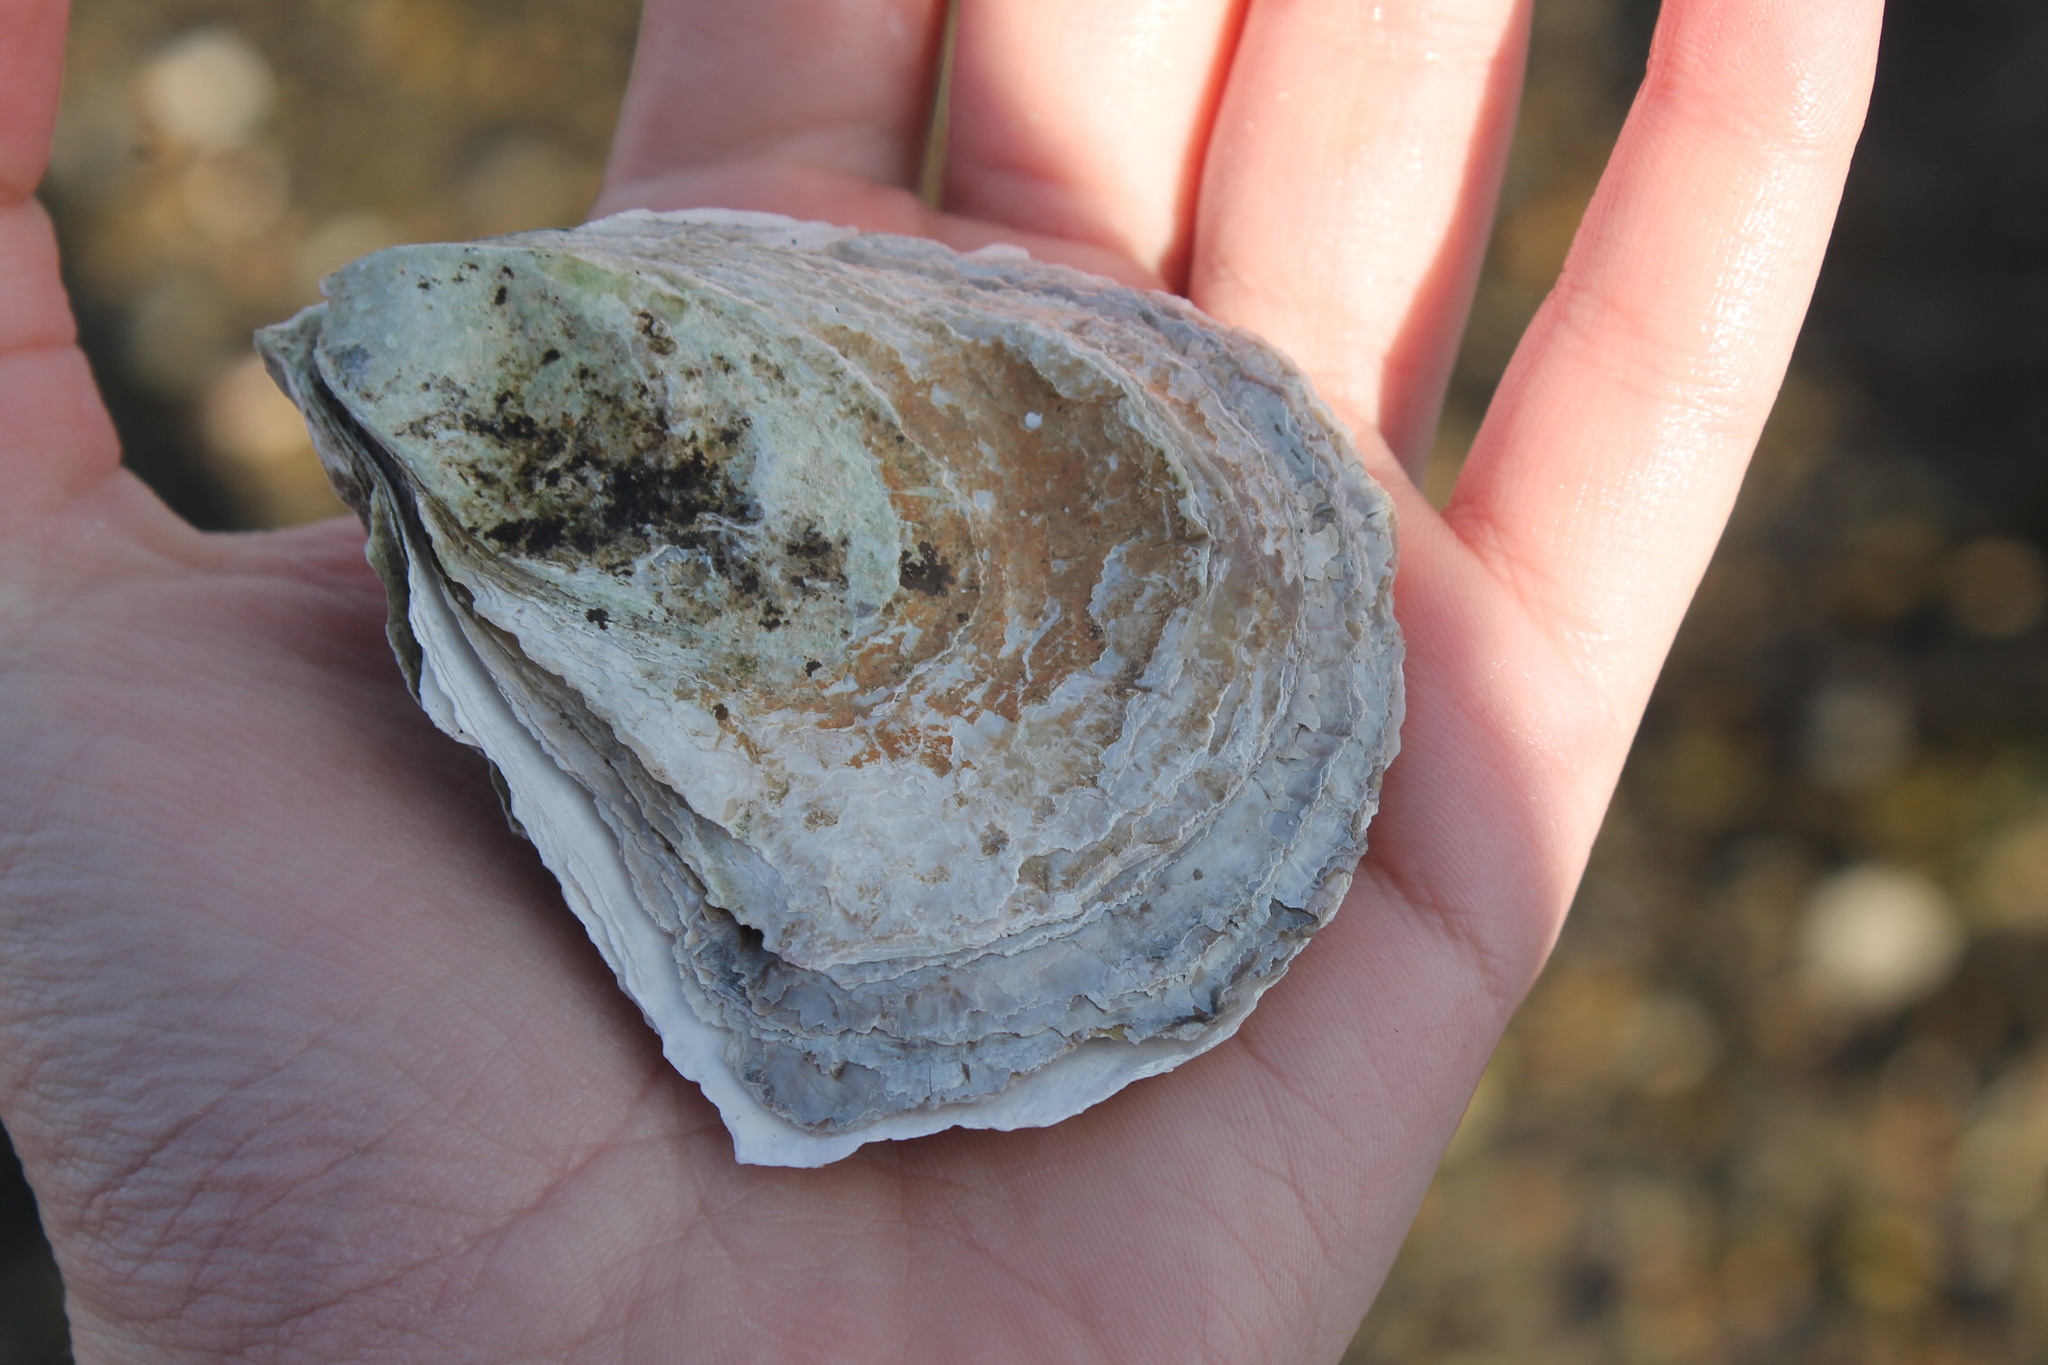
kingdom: Animalia
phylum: Mollusca
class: Bivalvia
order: Ostreida
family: Ostreidae
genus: Crassostrea
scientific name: Crassostrea virginica
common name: American oyster
